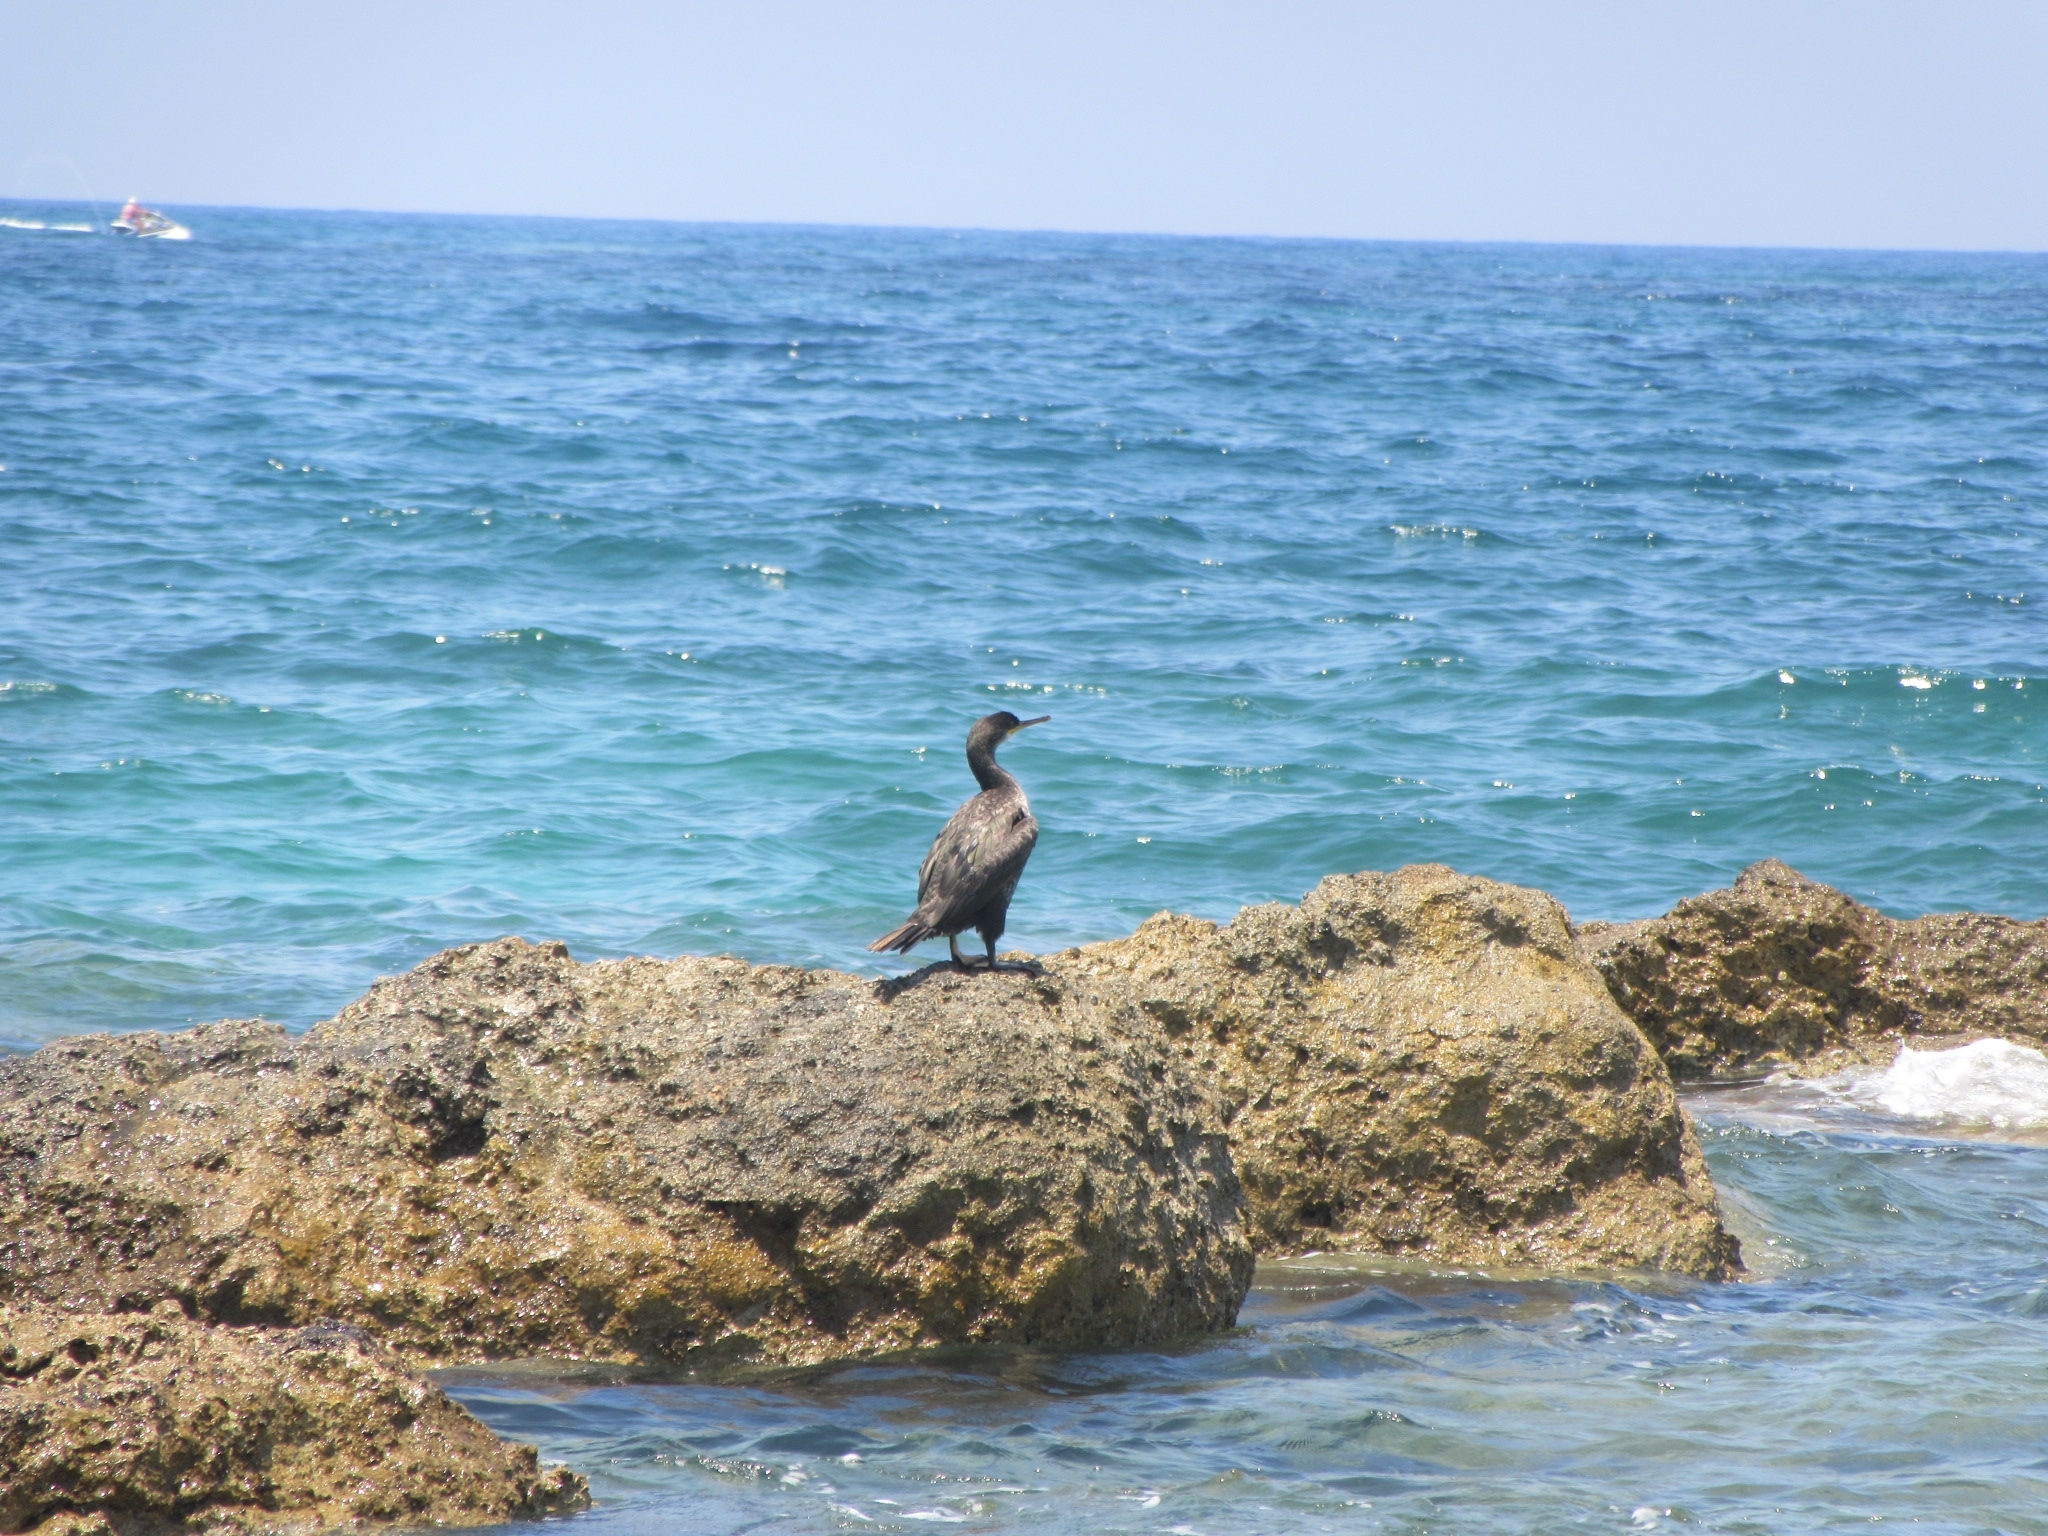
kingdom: Animalia
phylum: Chordata
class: Aves
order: Suliformes
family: Phalacrocoracidae
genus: Phalacrocorax
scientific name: Phalacrocorax aristotelis
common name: European shag
